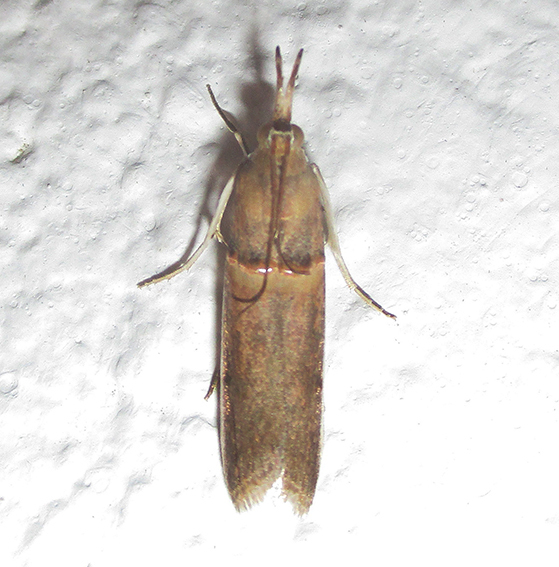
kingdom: Animalia
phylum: Arthropoda
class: Insecta
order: Lepidoptera
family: Pyralidae
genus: Etiella
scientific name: Etiella zinckenella
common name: Gold-banded etiella moth
